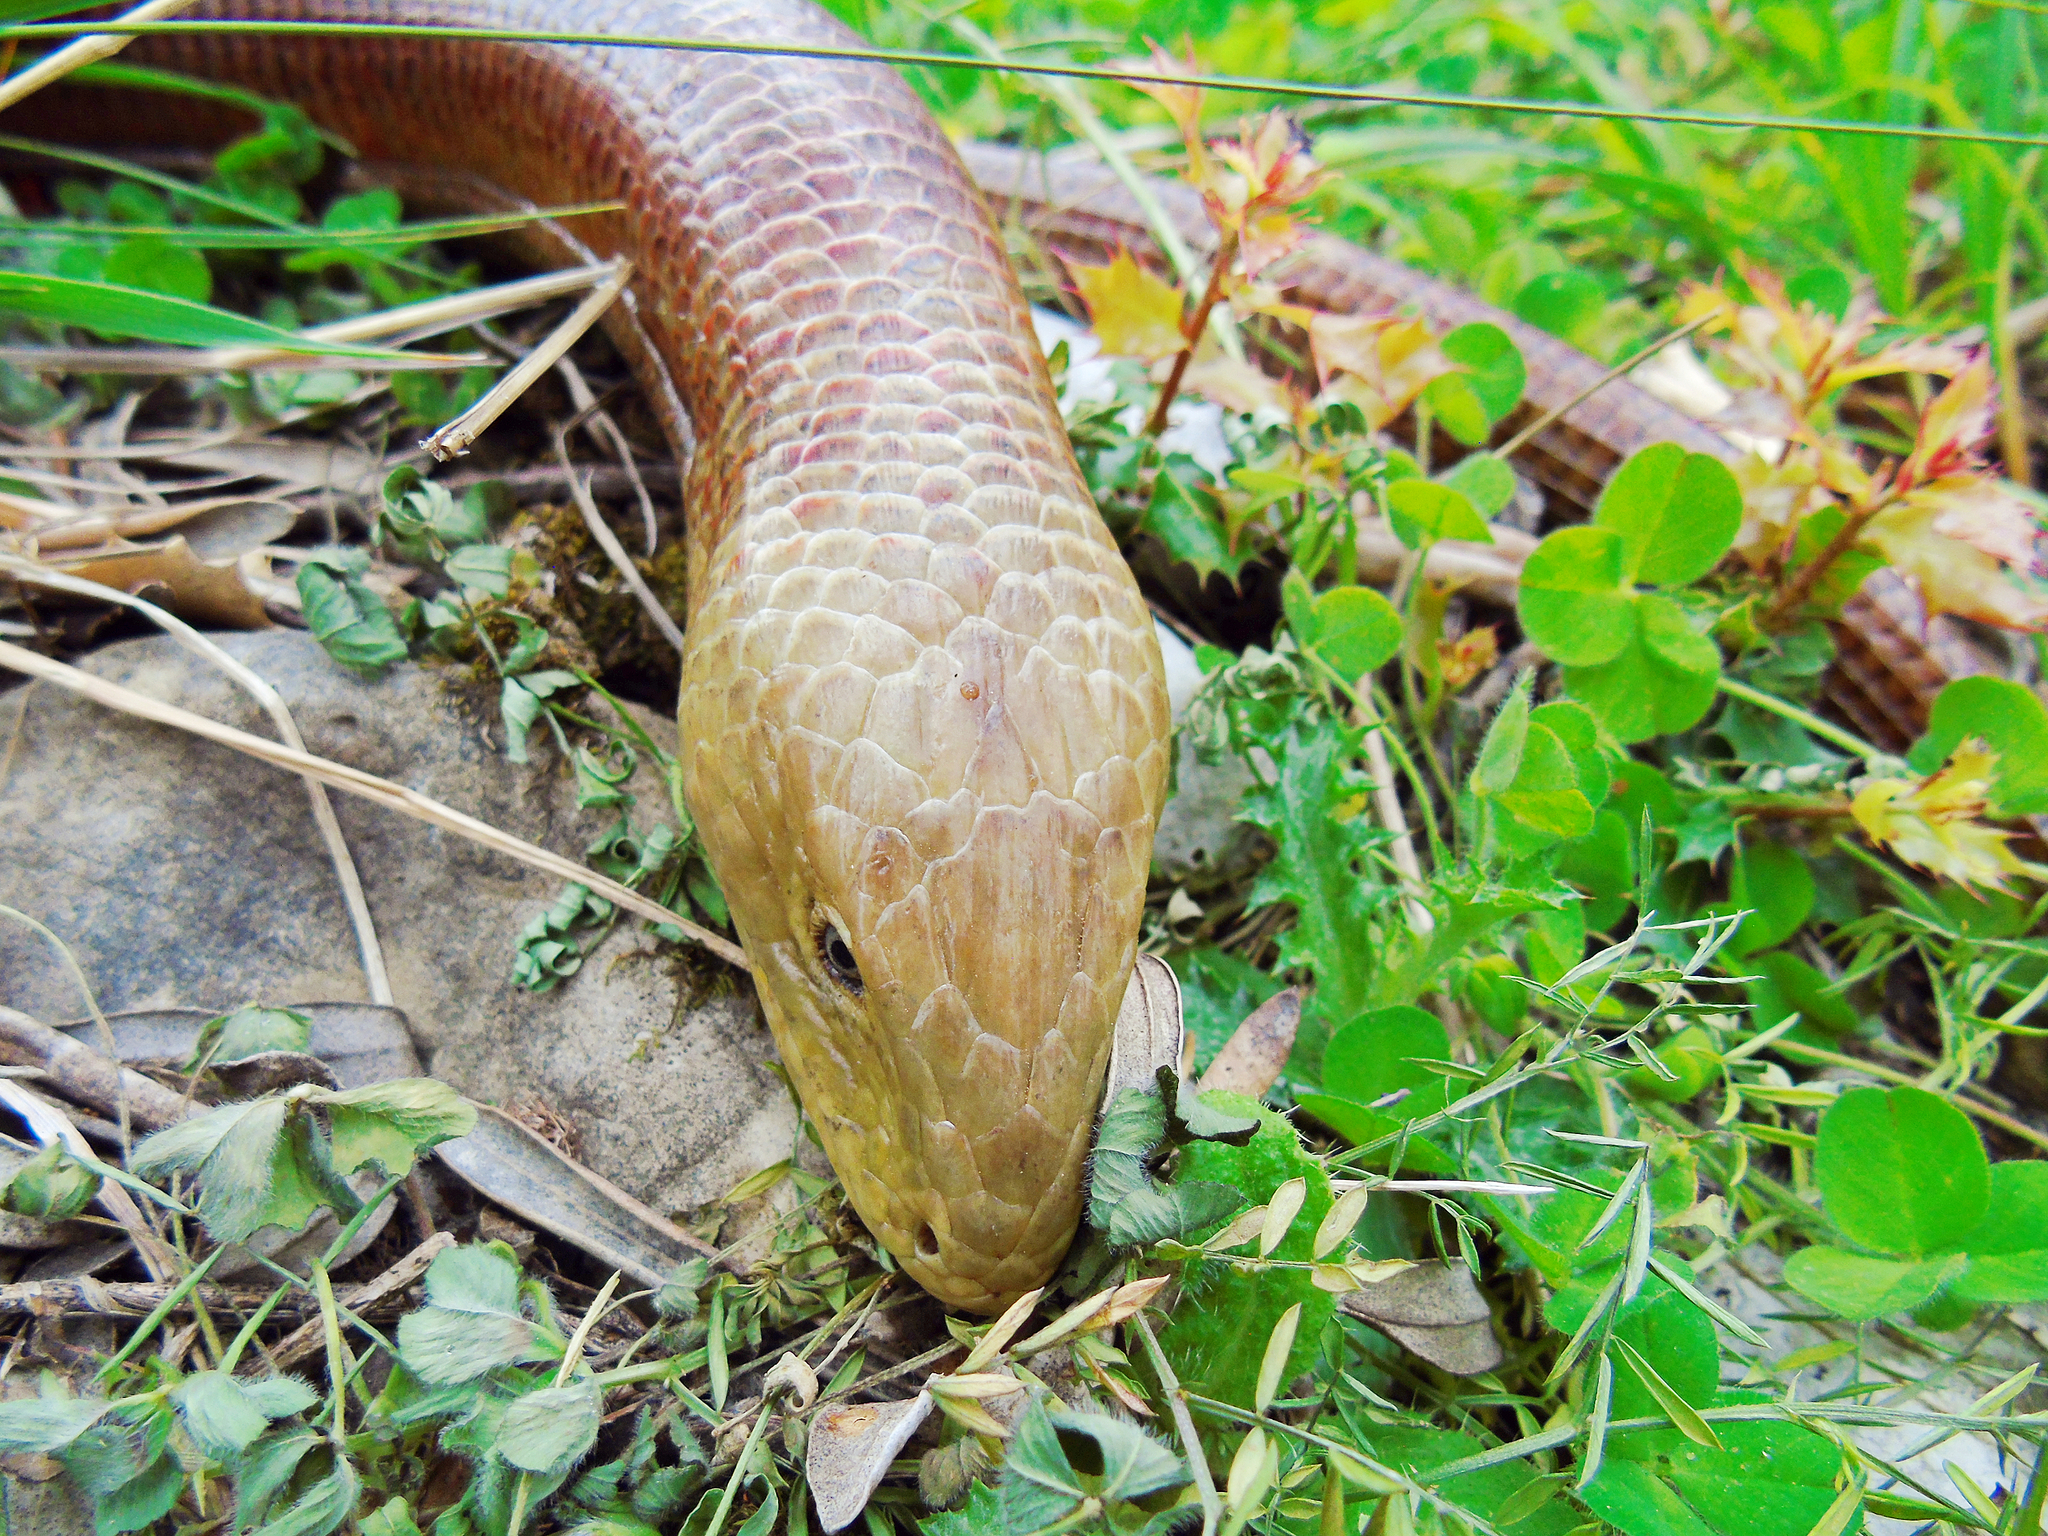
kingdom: Animalia
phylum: Chordata
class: Squamata
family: Anguidae
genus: Pseudopus
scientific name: Pseudopus apodus
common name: European glass lizard
